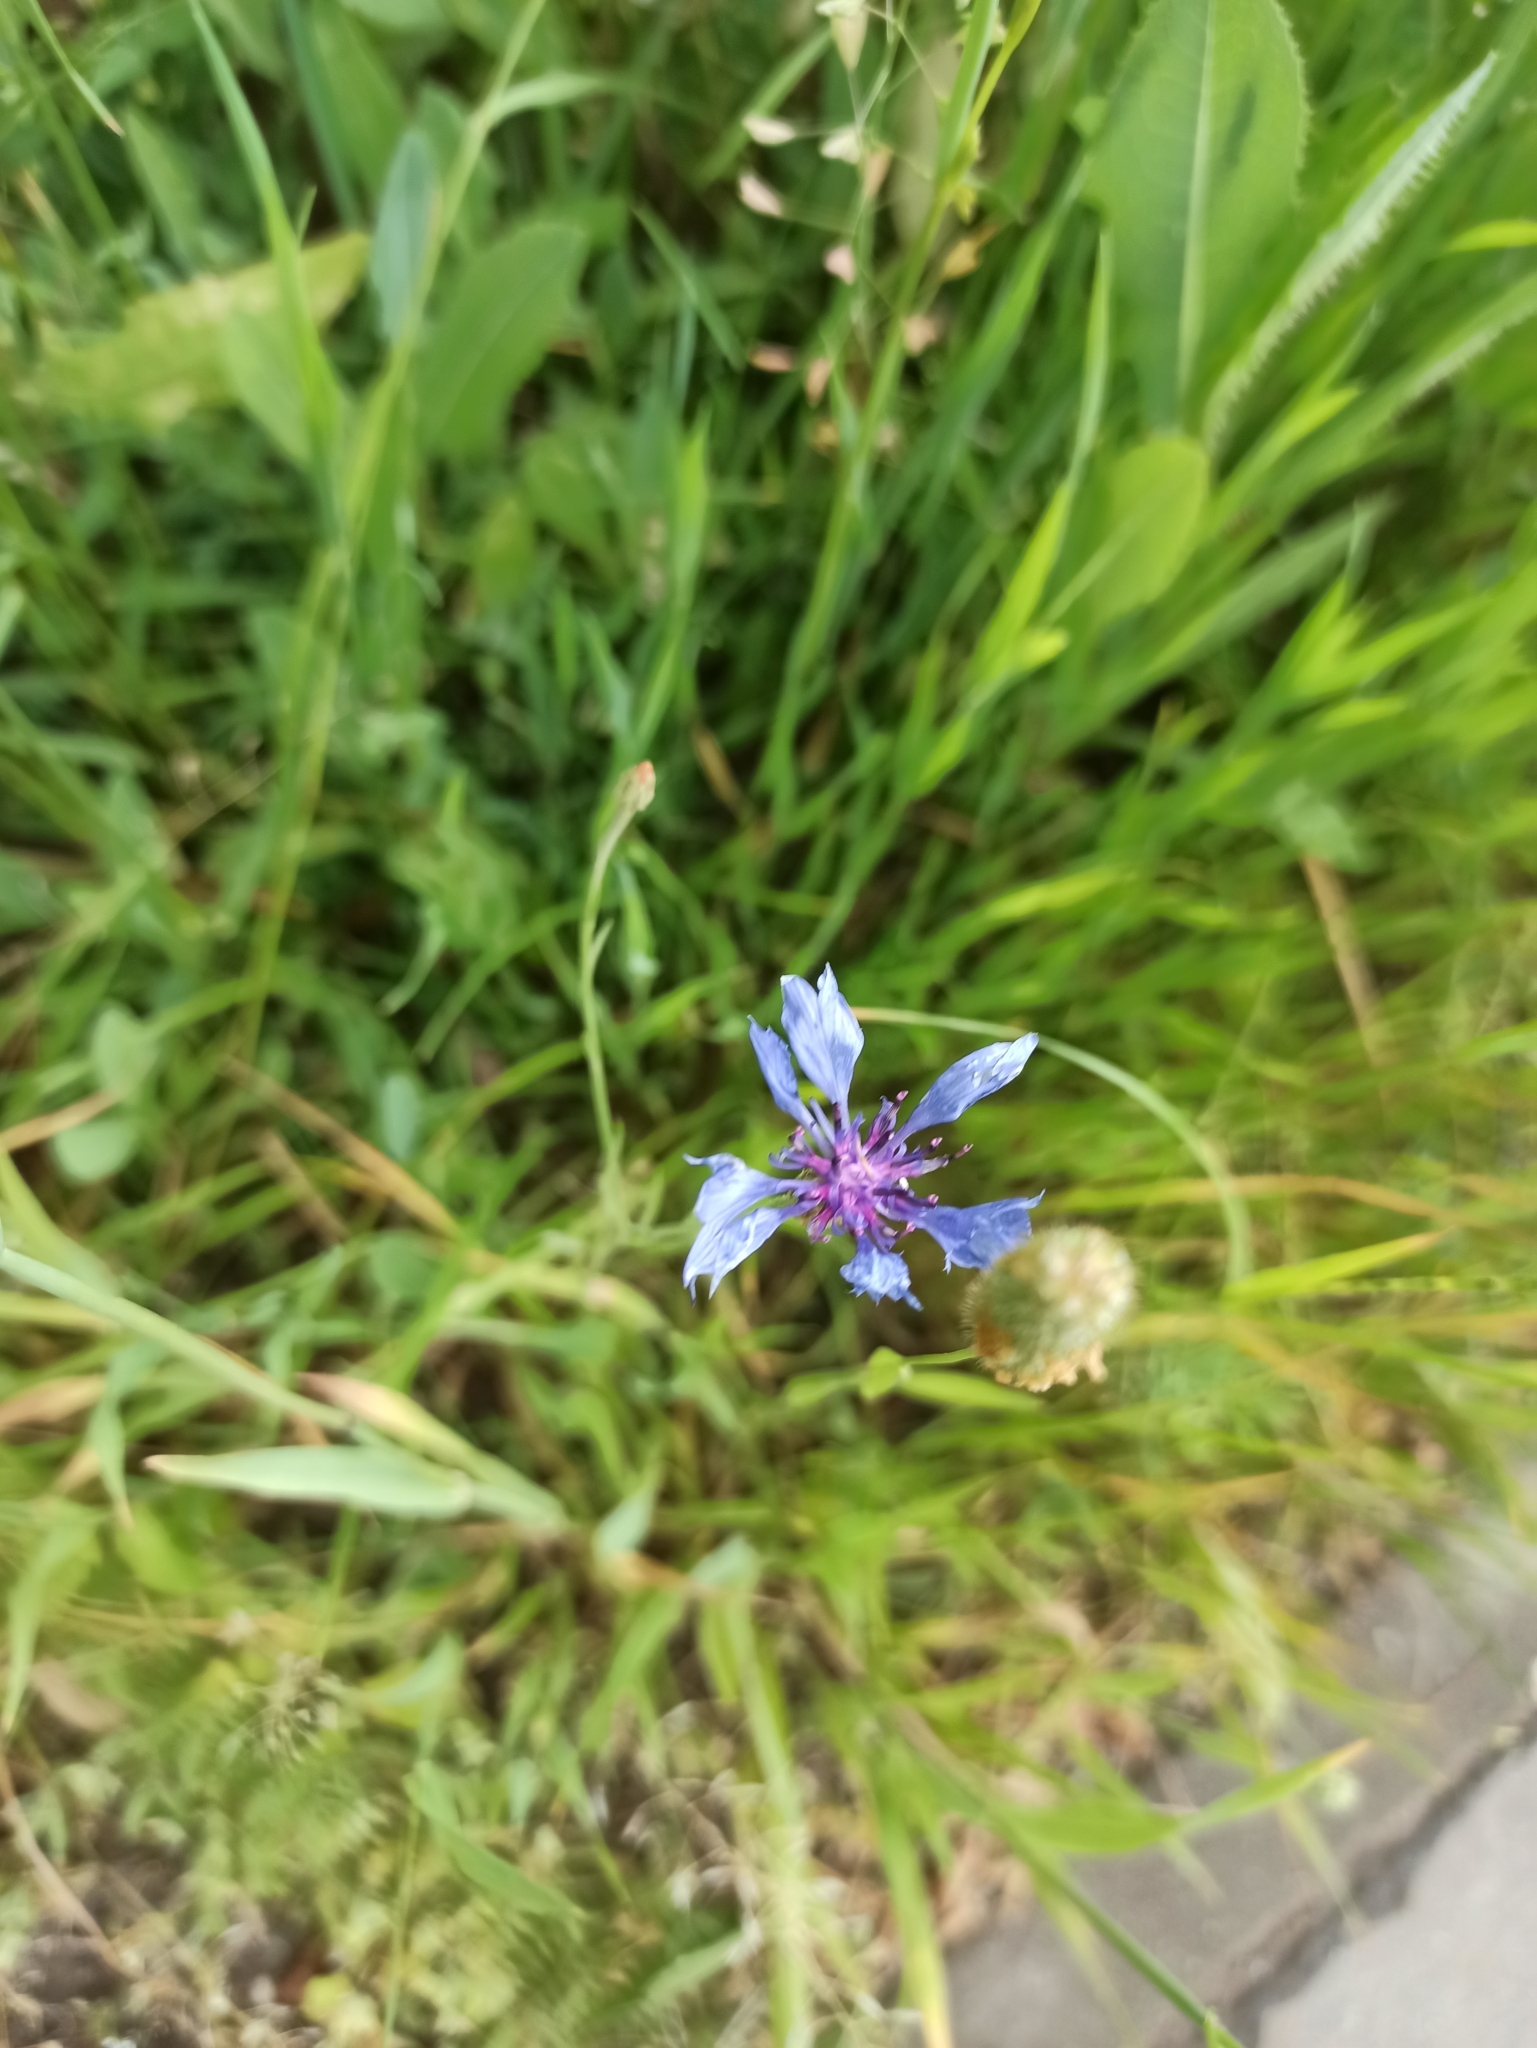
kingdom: Plantae
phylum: Tracheophyta
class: Magnoliopsida
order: Asterales
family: Asteraceae
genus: Centaurea
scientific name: Centaurea cyanus
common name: Cornflower
